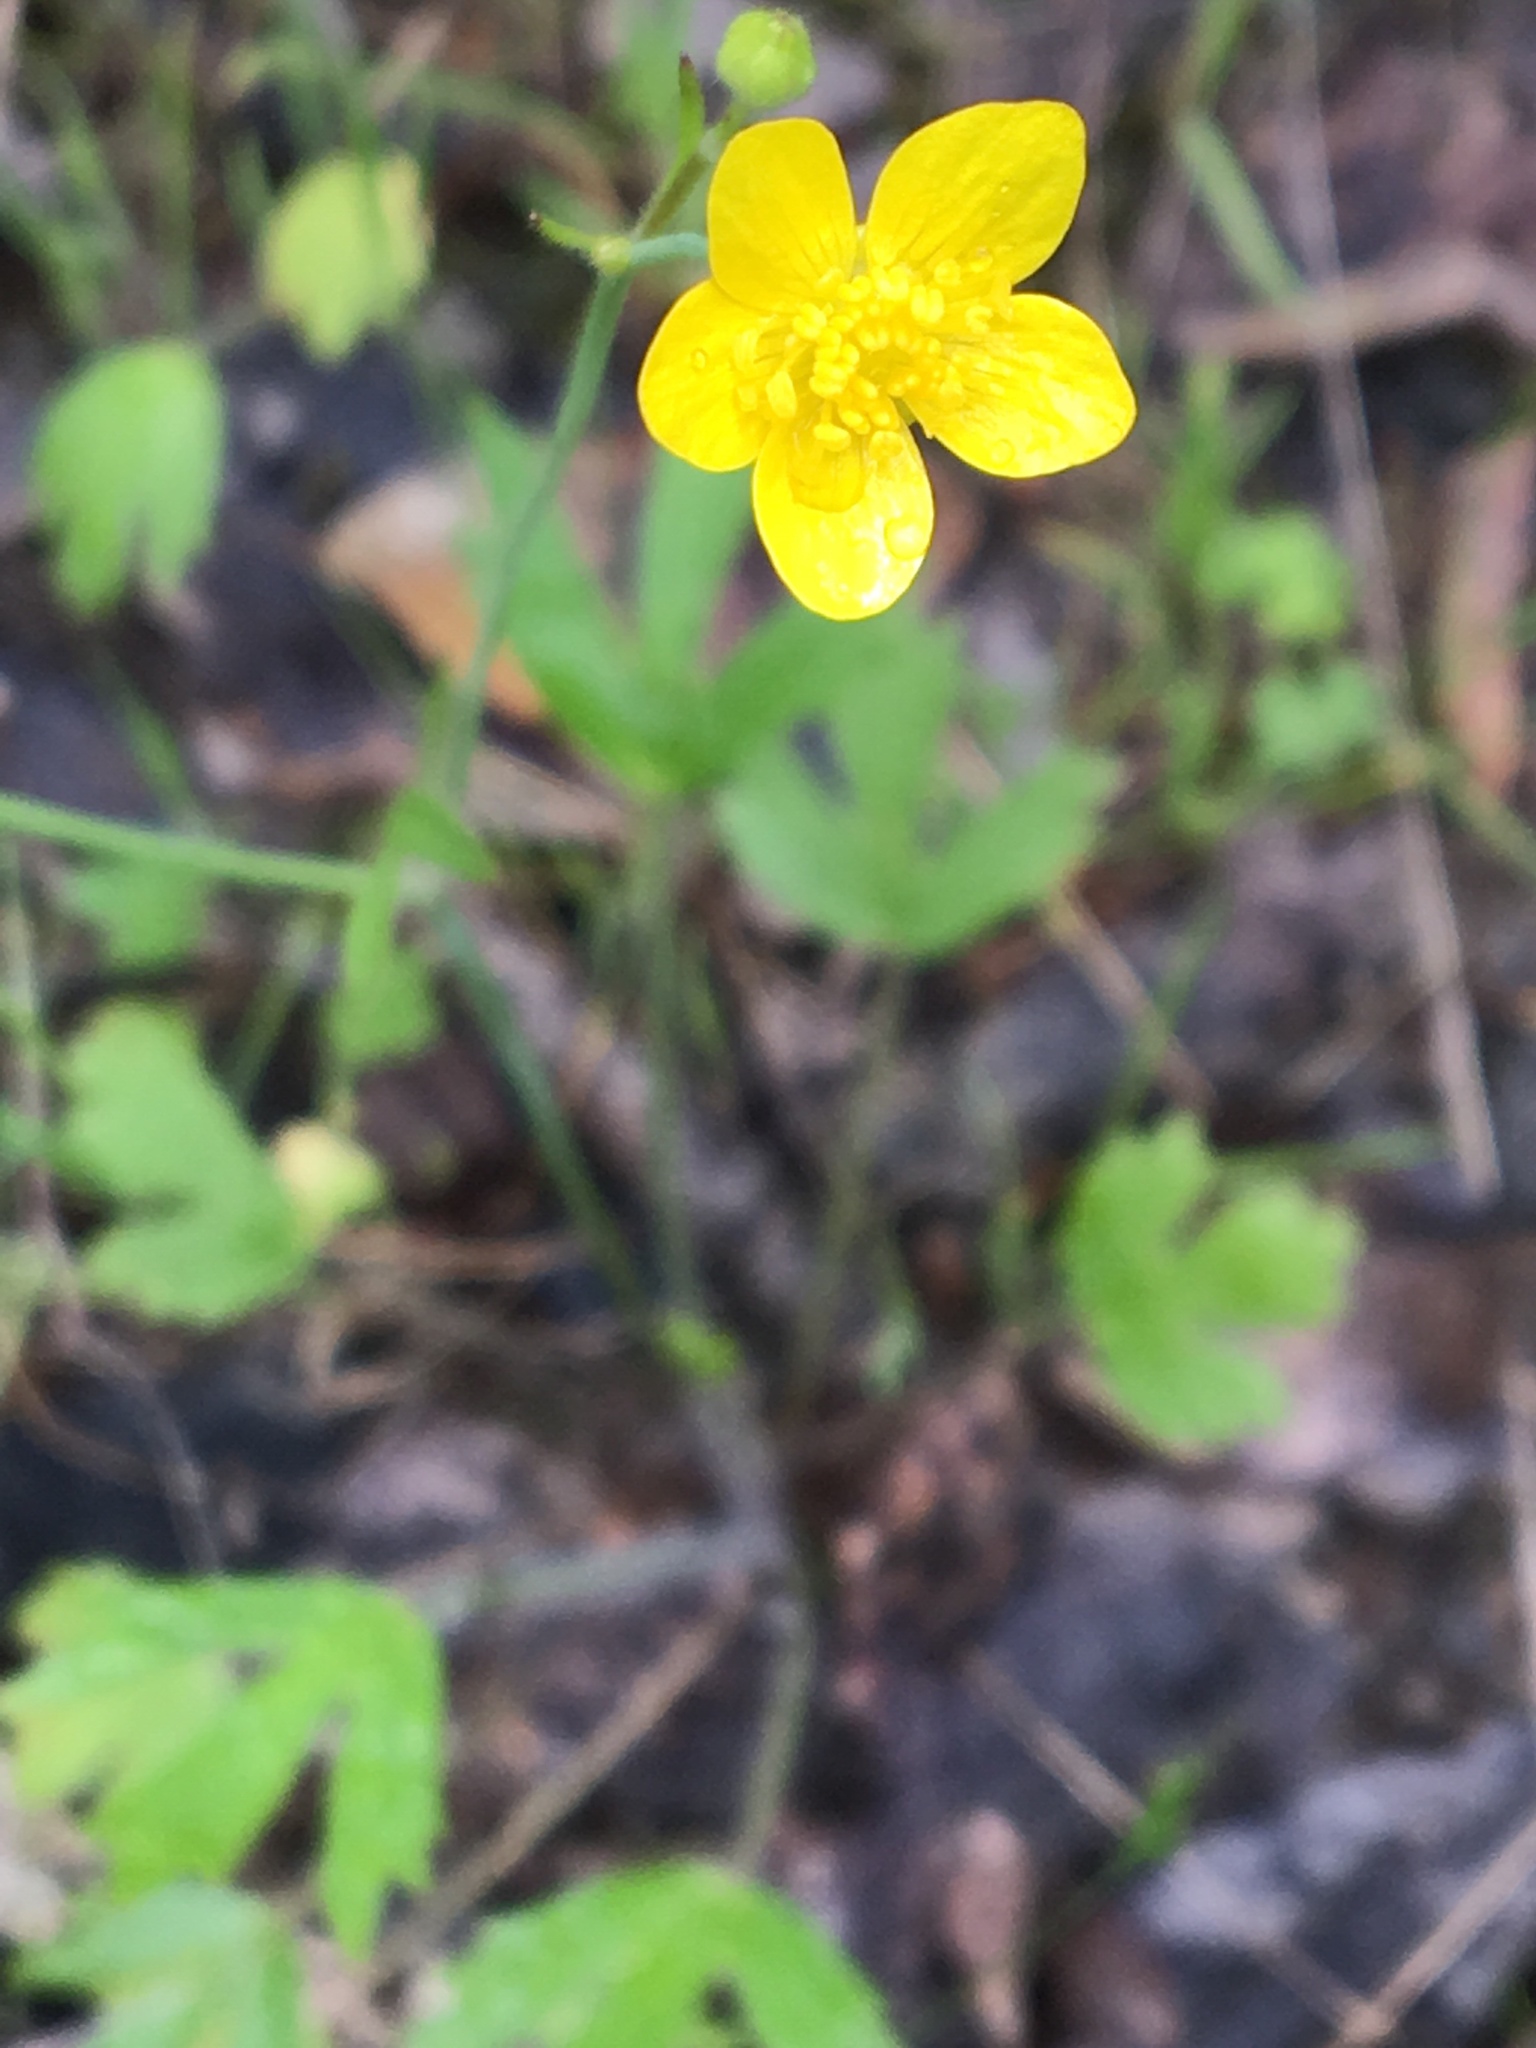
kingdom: Plantae
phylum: Tracheophyta
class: Magnoliopsida
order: Ranunculales
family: Ranunculaceae
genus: Ranunculus
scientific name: Ranunculus occidentalis
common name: Western buttercup
